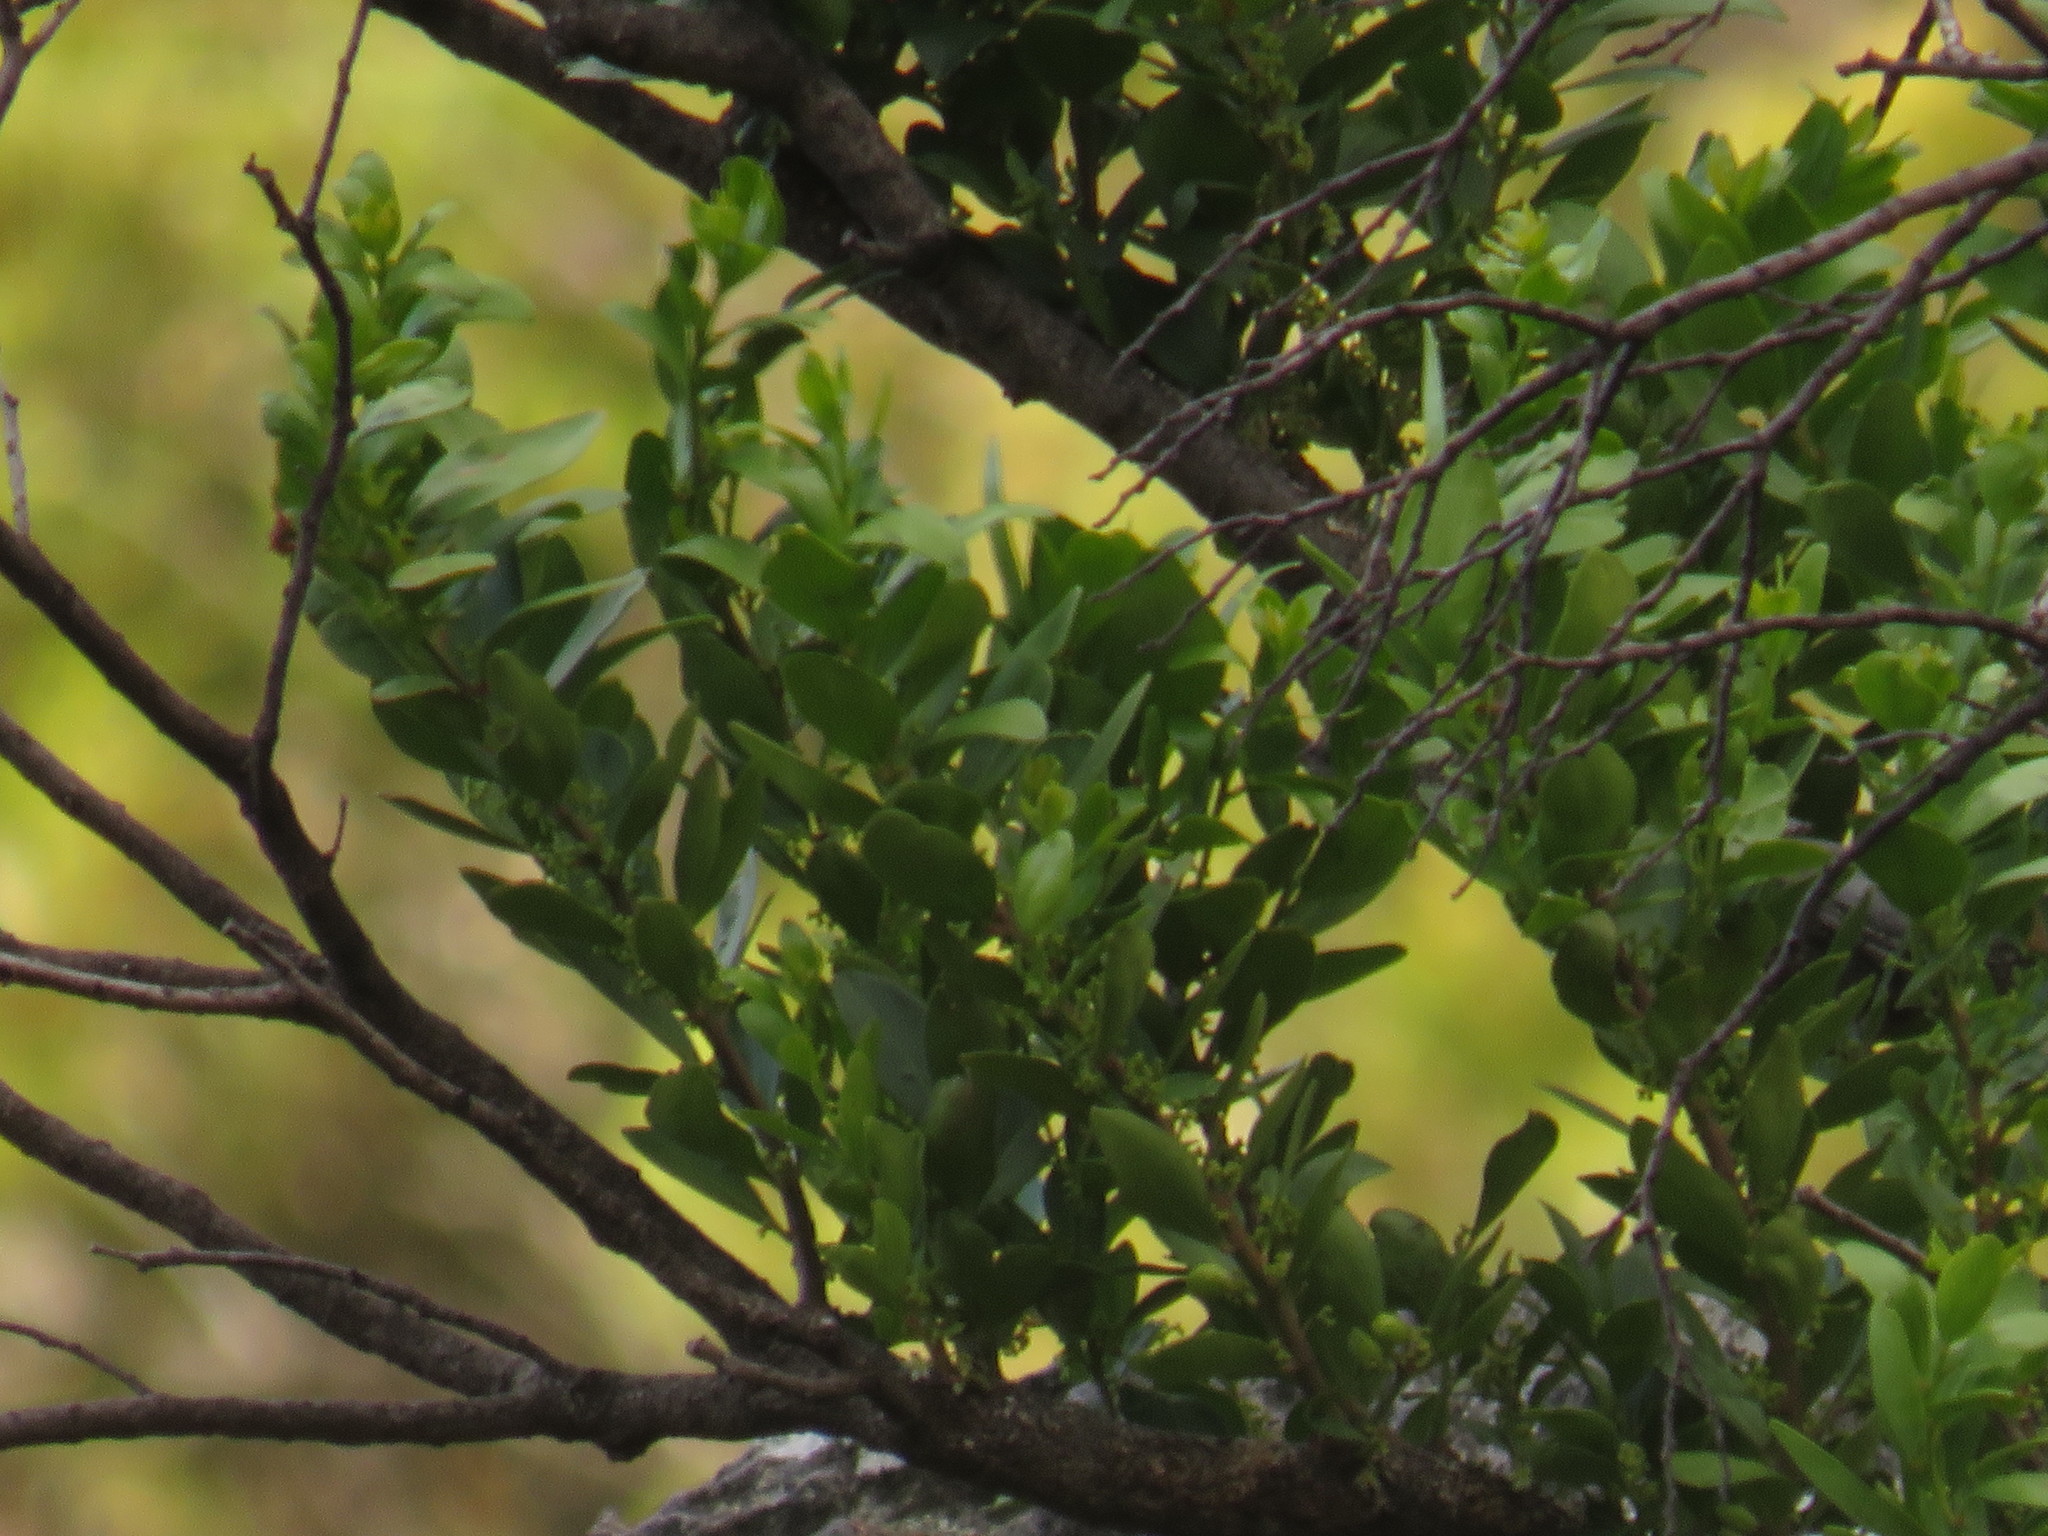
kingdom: Plantae
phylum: Tracheophyta
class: Magnoliopsida
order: Celastrales
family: Celastraceae
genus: Gymnosporia
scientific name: Gymnosporia laurina
